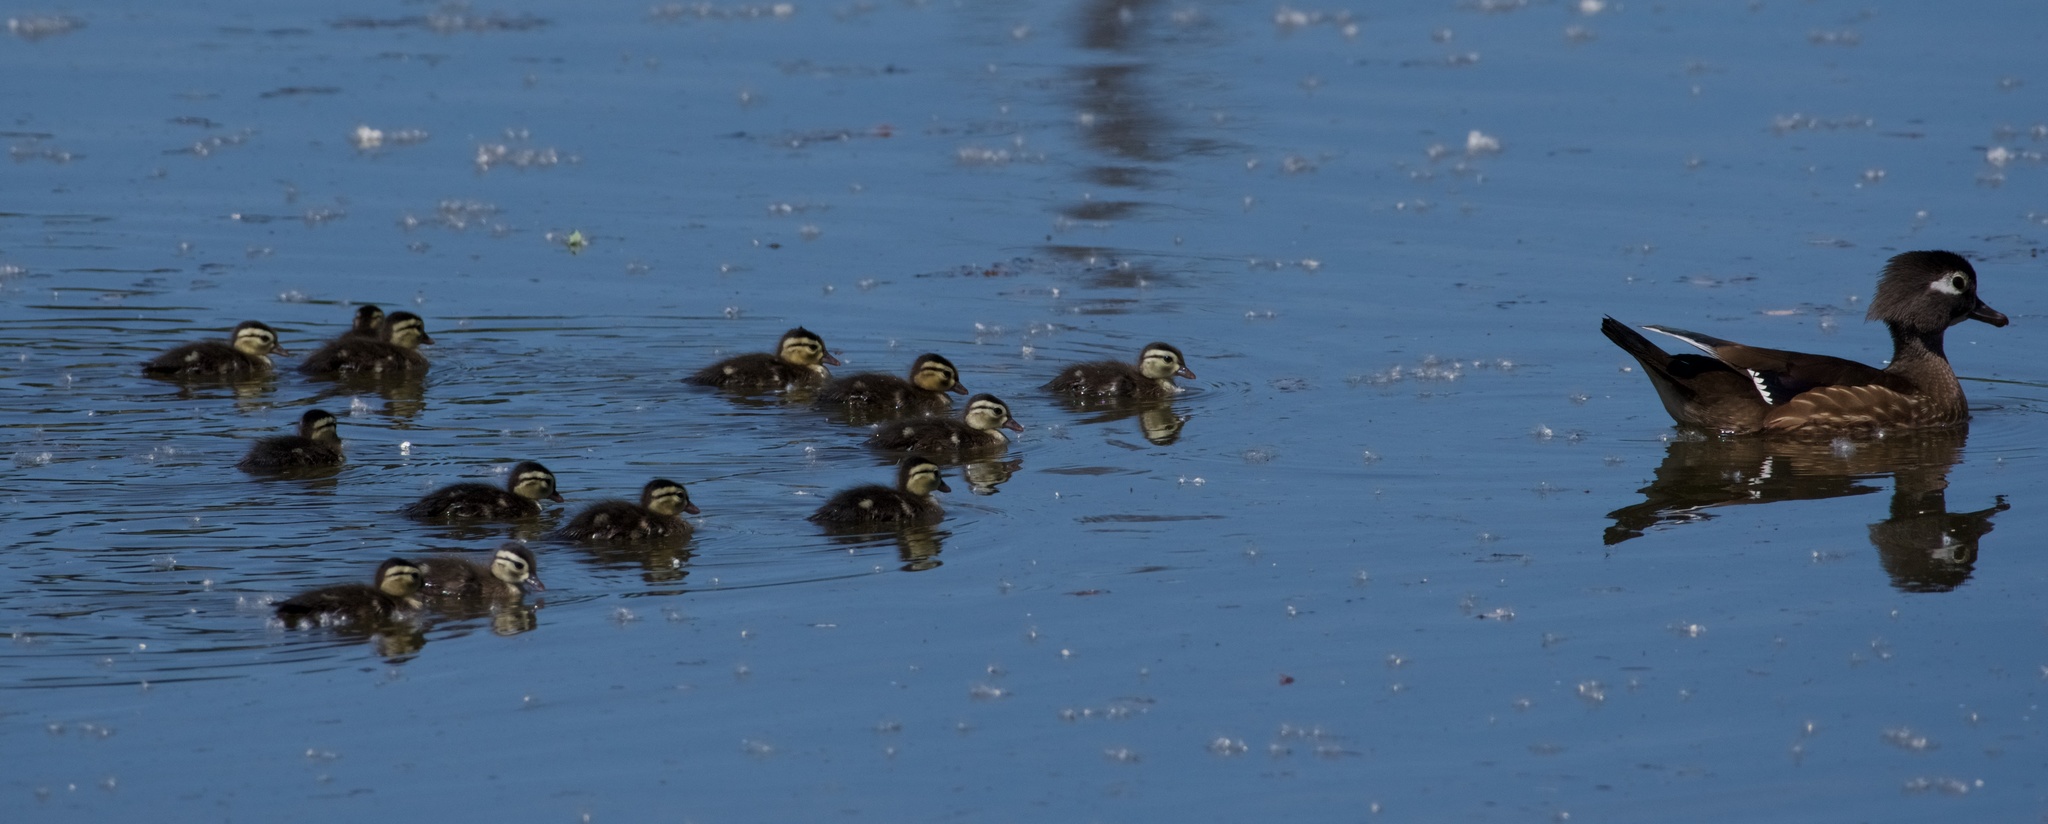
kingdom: Animalia
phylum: Chordata
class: Aves
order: Anseriformes
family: Anatidae
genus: Aix
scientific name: Aix sponsa
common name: Wood duck
